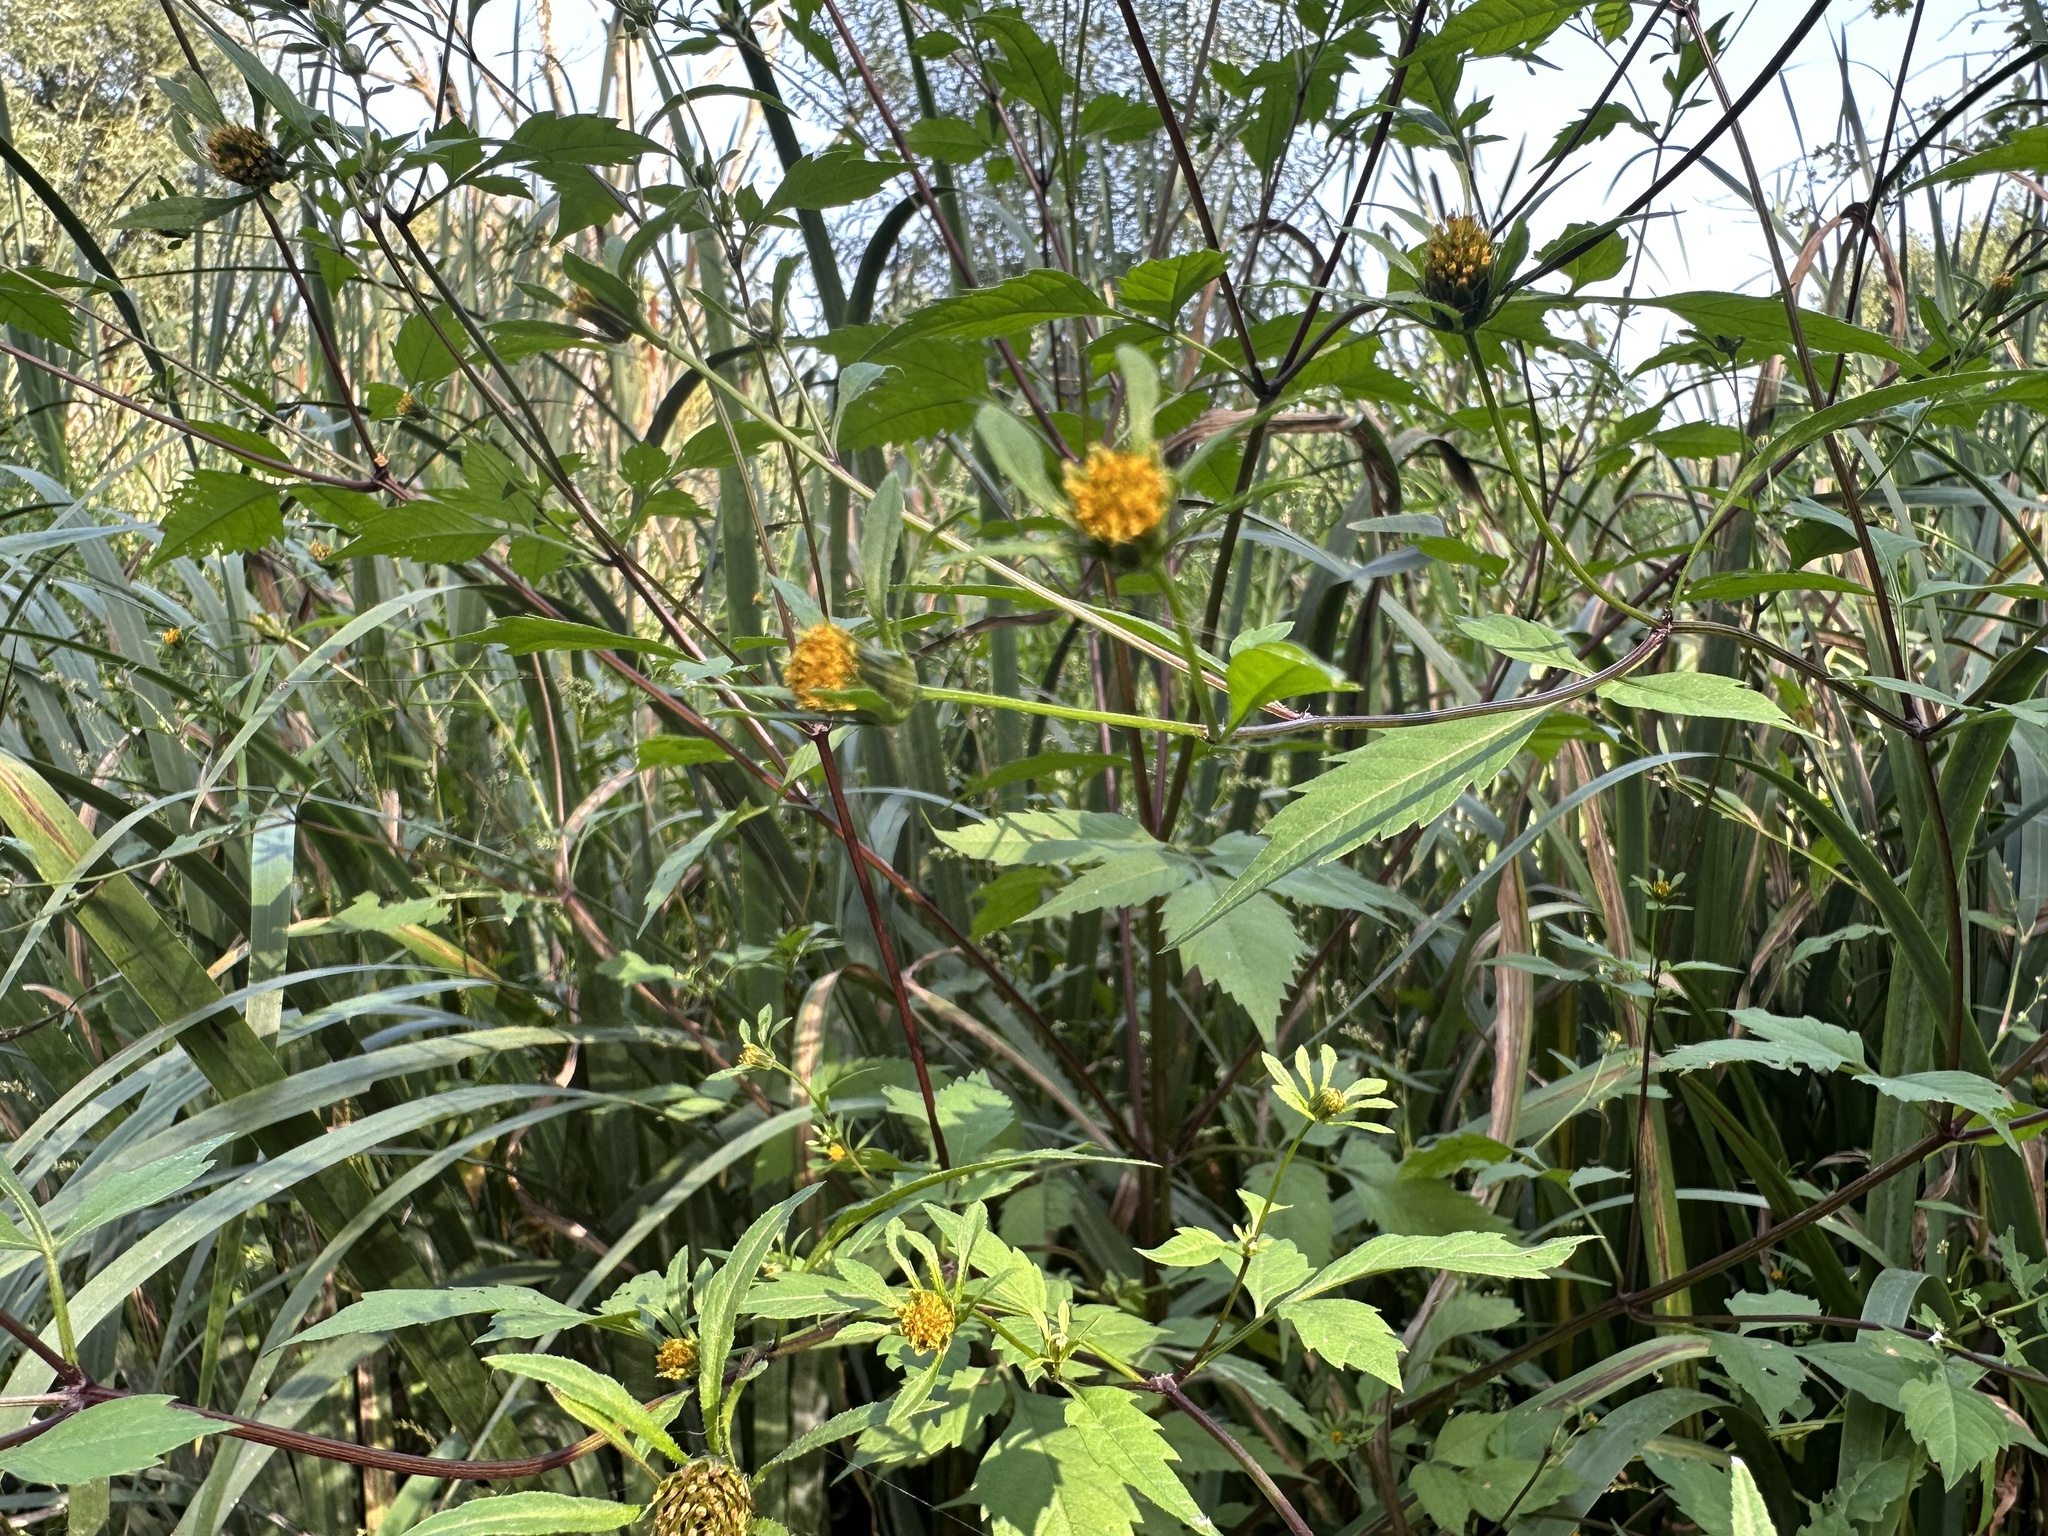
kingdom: Plantae
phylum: Tracheophyta
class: Magnoliopsida
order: Asterales
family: Asteraceae
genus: Bidens
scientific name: Bidens frondosa
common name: Beggarticks
